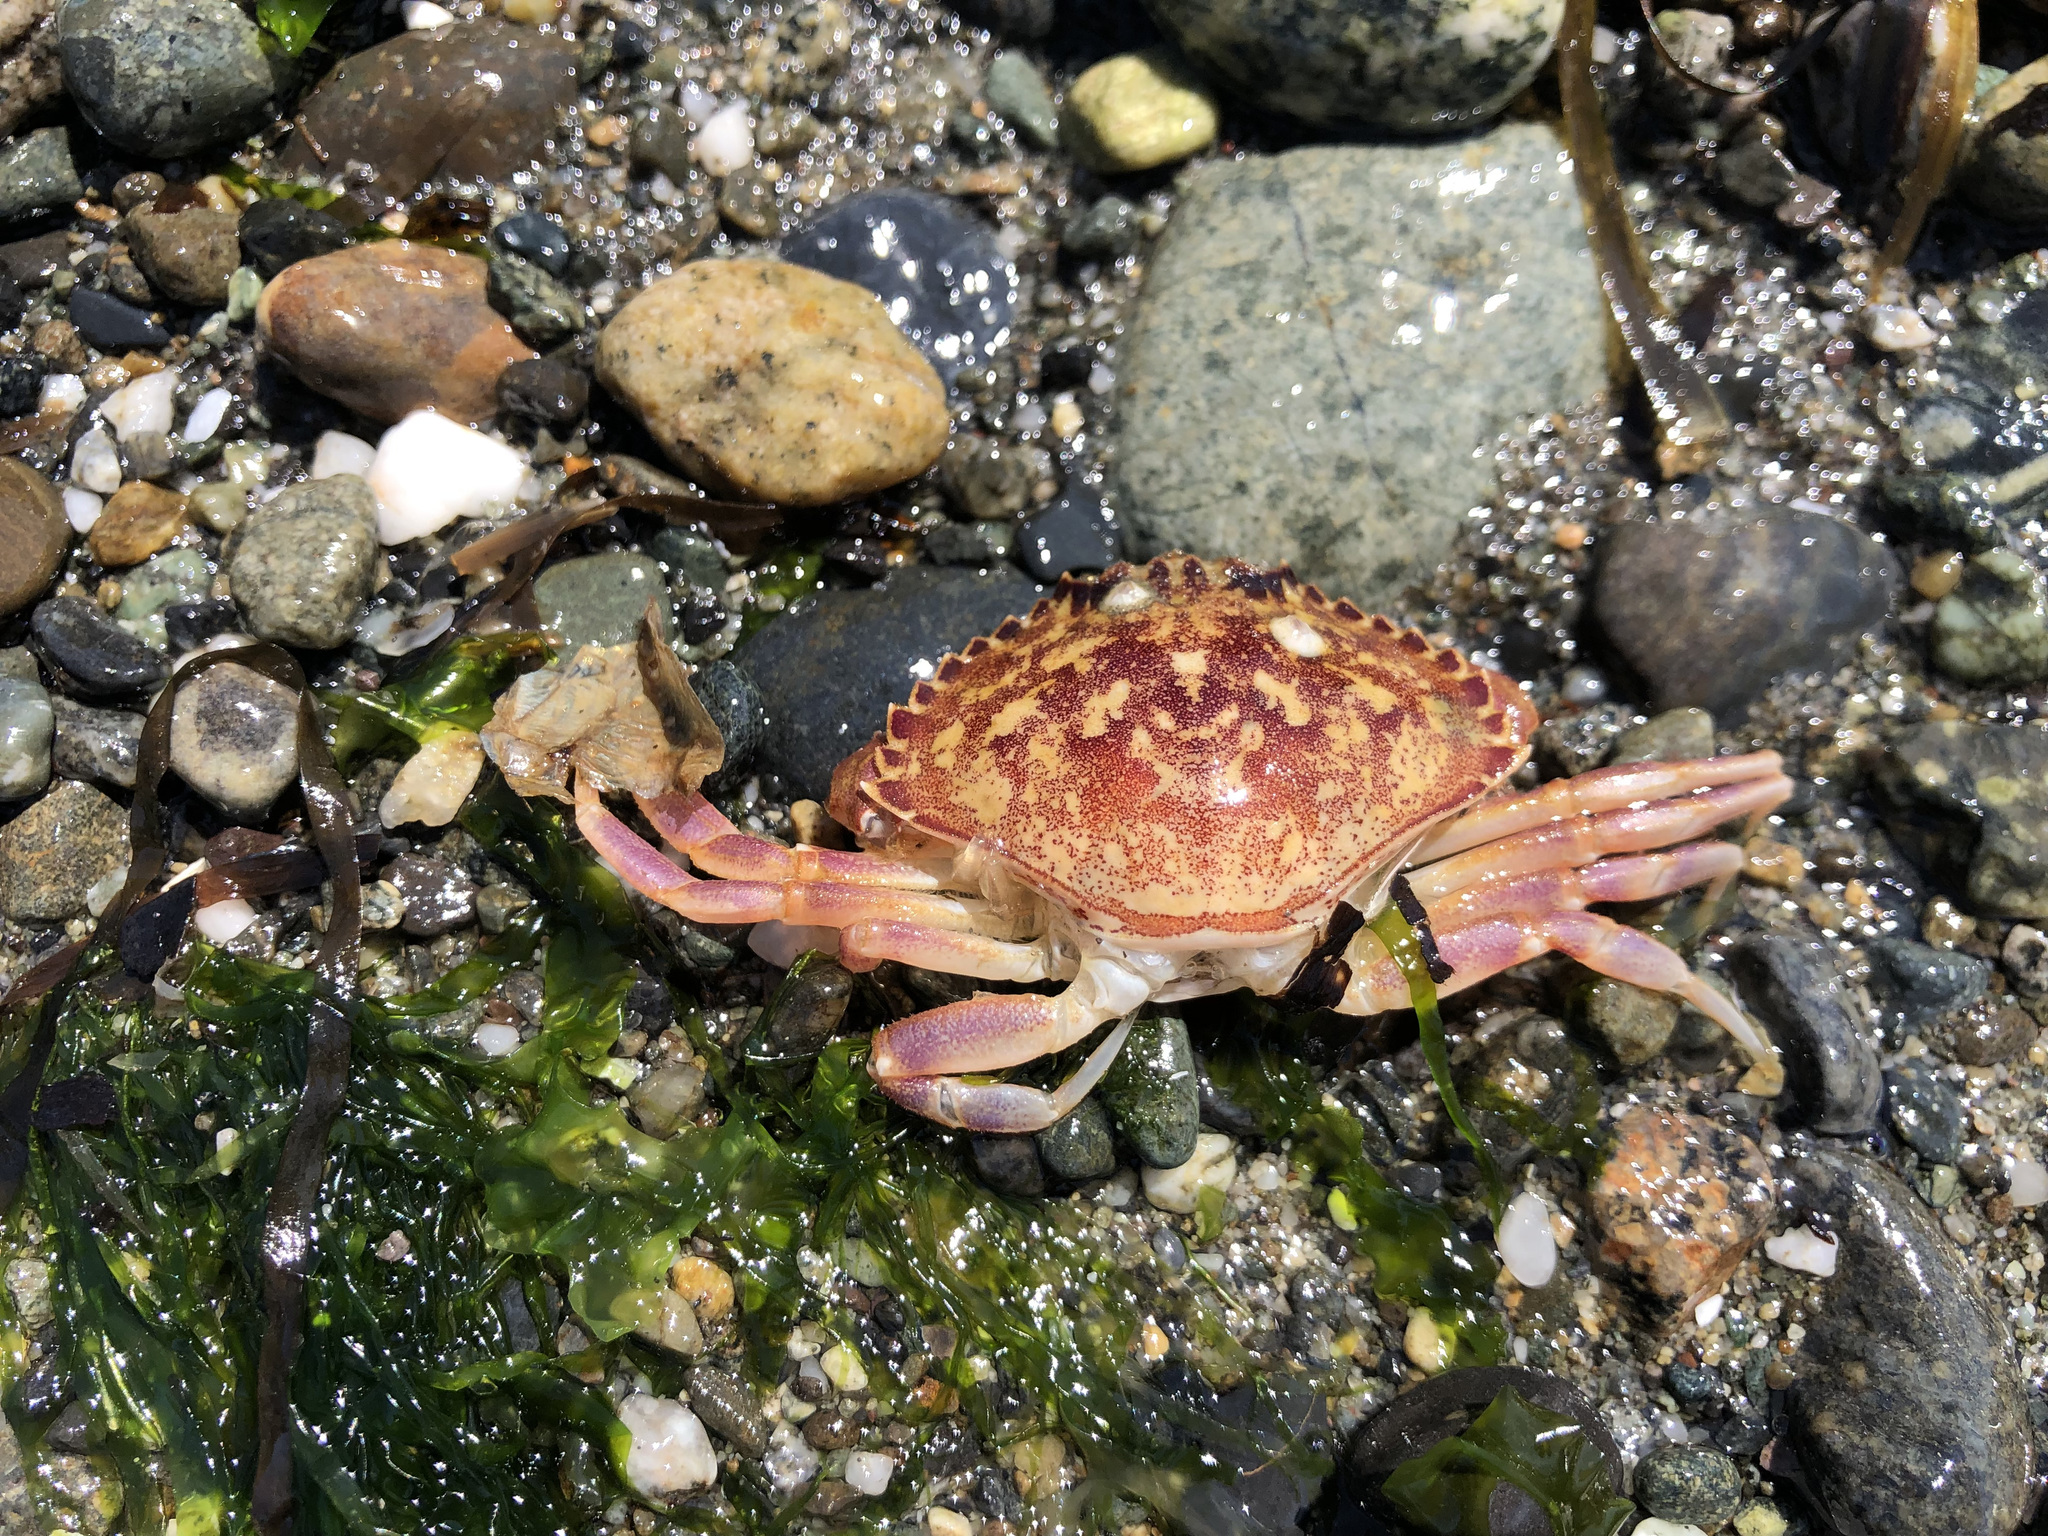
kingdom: Animalia
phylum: Arthropoda
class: Malacostraca
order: Decapoda
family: Cancridae
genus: Metacarcinus
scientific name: Metacarcinus gracilis
